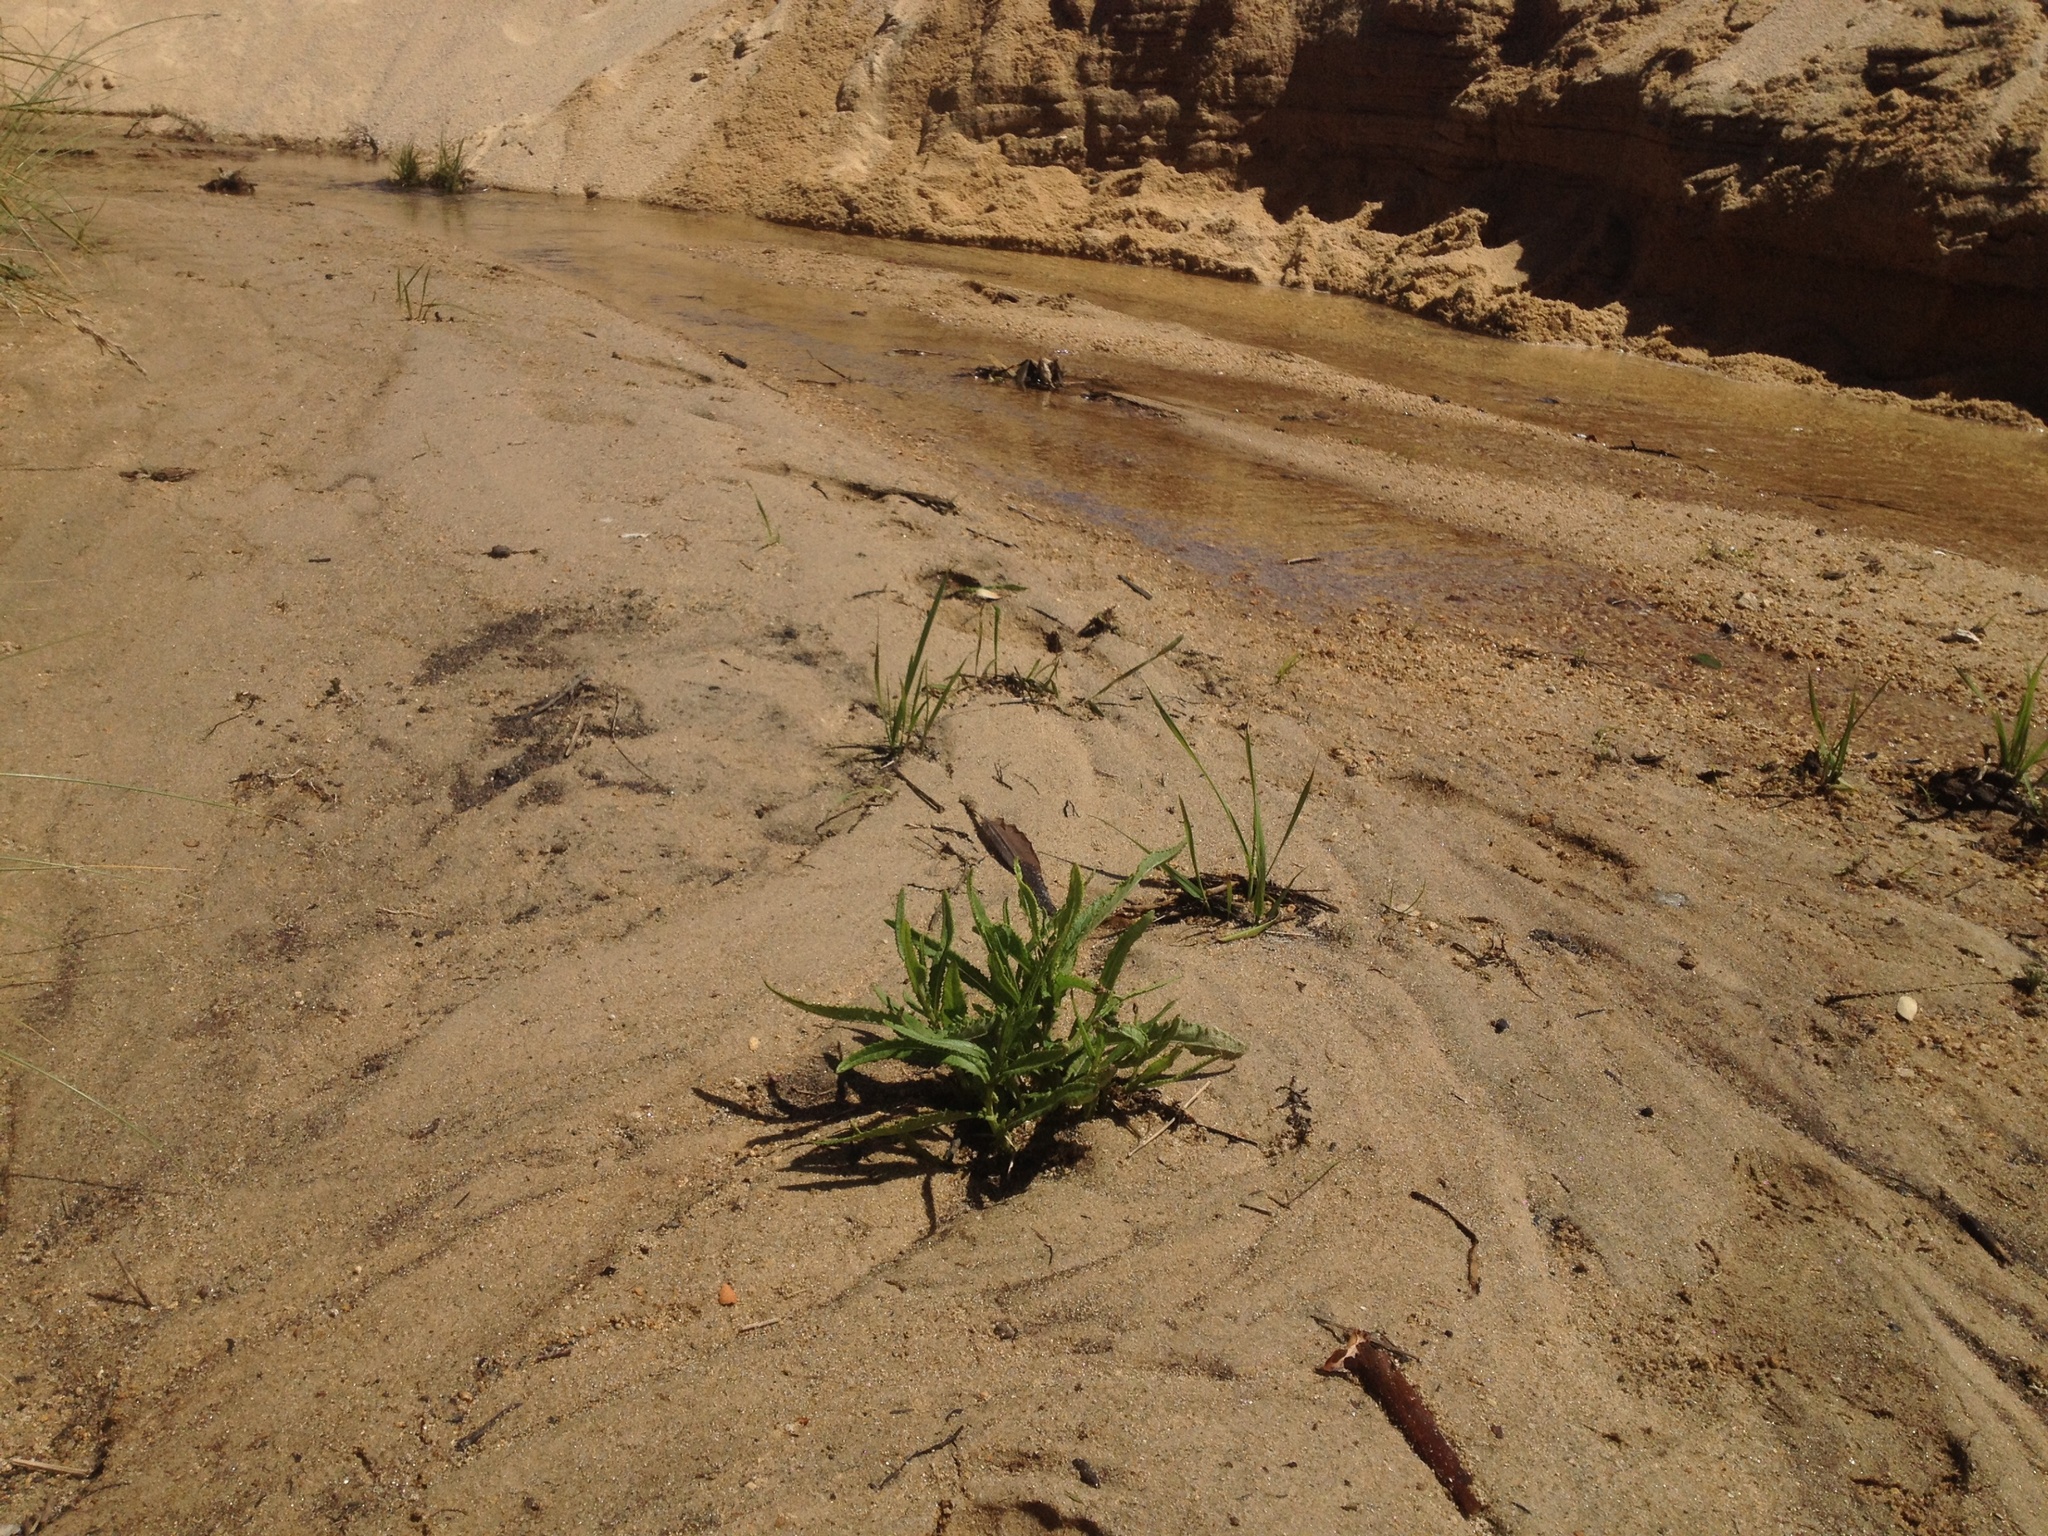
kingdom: Plantae
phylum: Tracheophyta
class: Magnoliopsida
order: Asterales
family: Asteraceae
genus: Senecio
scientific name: Senecio minimus
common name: Toothed fireweed
